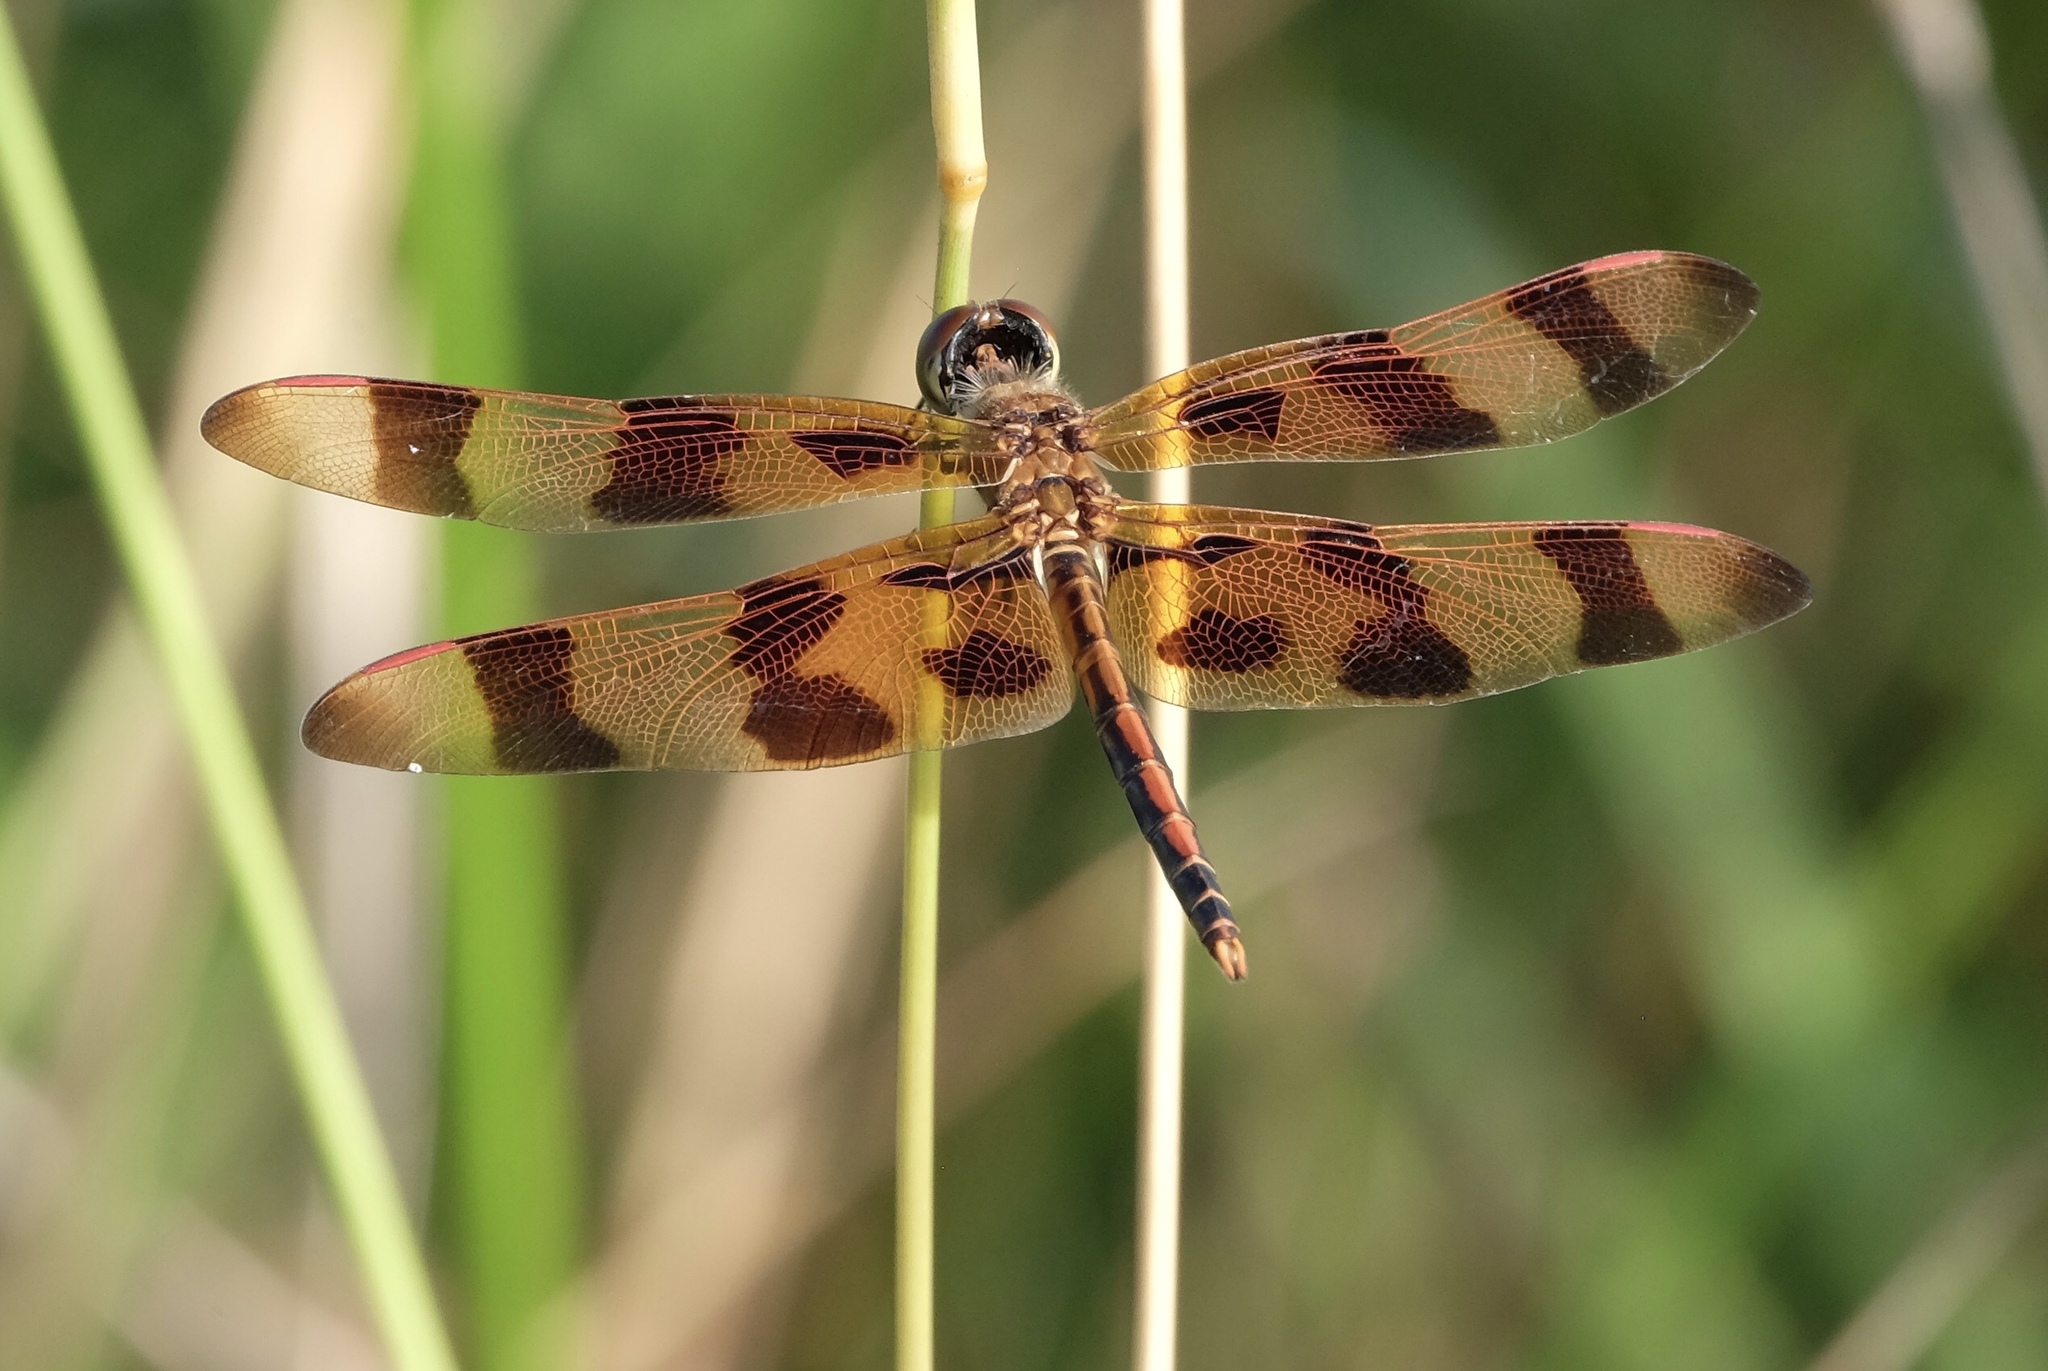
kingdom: Animalia
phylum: Arthropoda
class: Insecta
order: Odonata
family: Libellulidae
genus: Celithemis
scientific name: Celithemis eponina
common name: Halloween pennant
